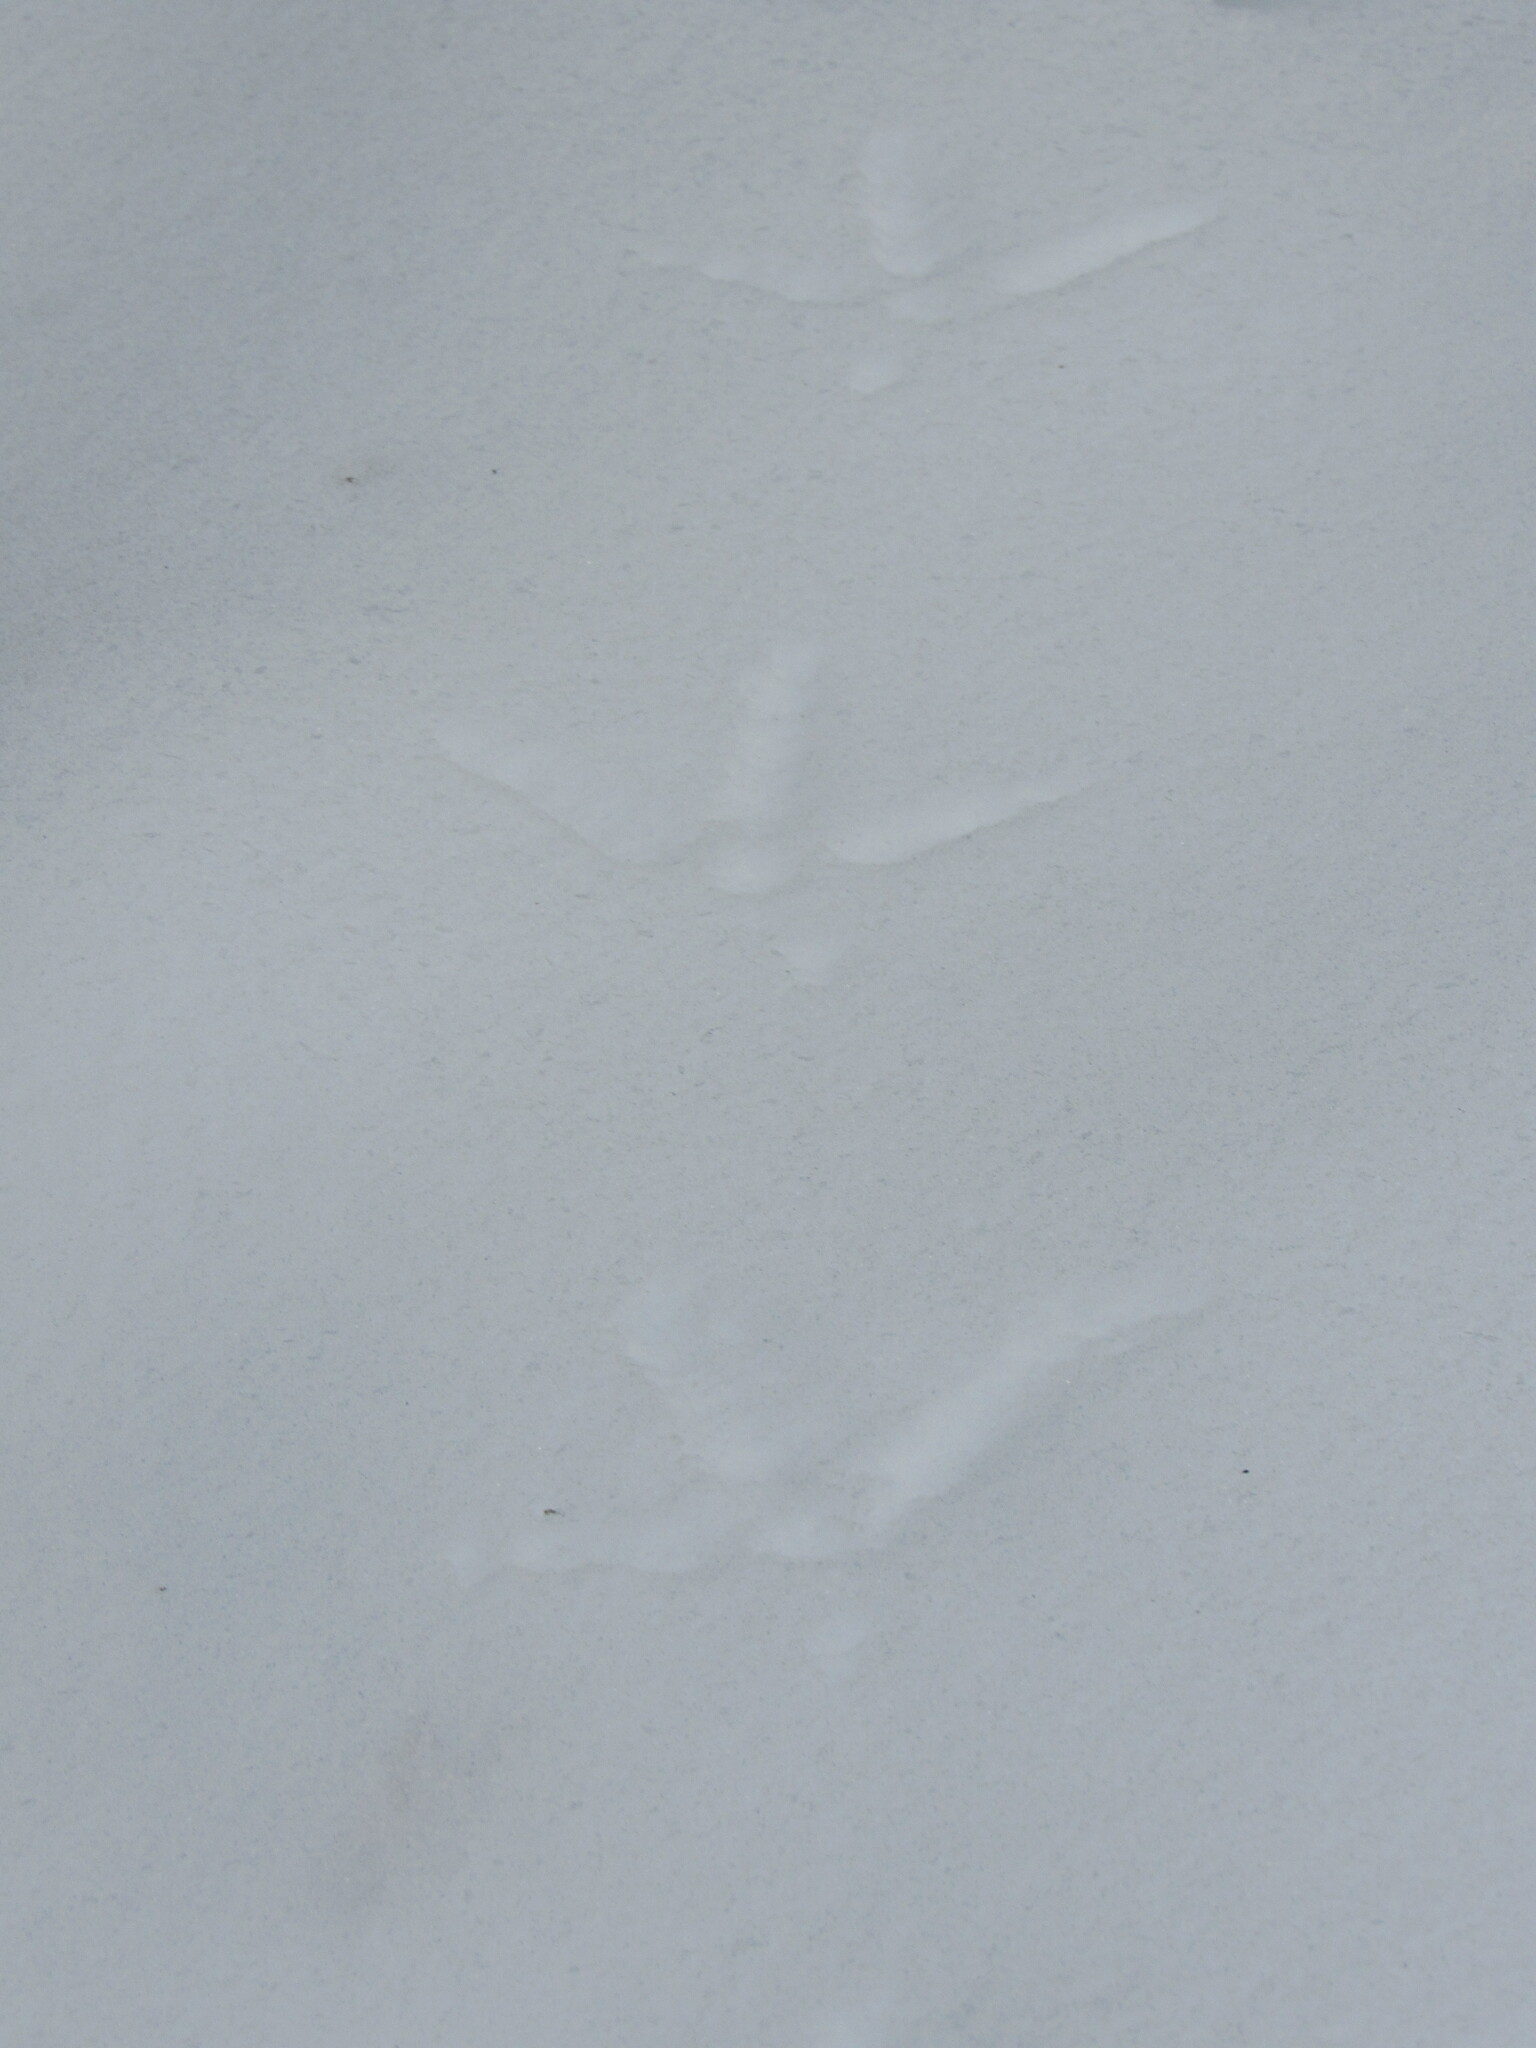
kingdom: Animalia
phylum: Chordata
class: Aves
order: Galliformes
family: Phasianidae
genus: Meleagris
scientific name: Meleagris gallopavo
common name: Wild turkey
